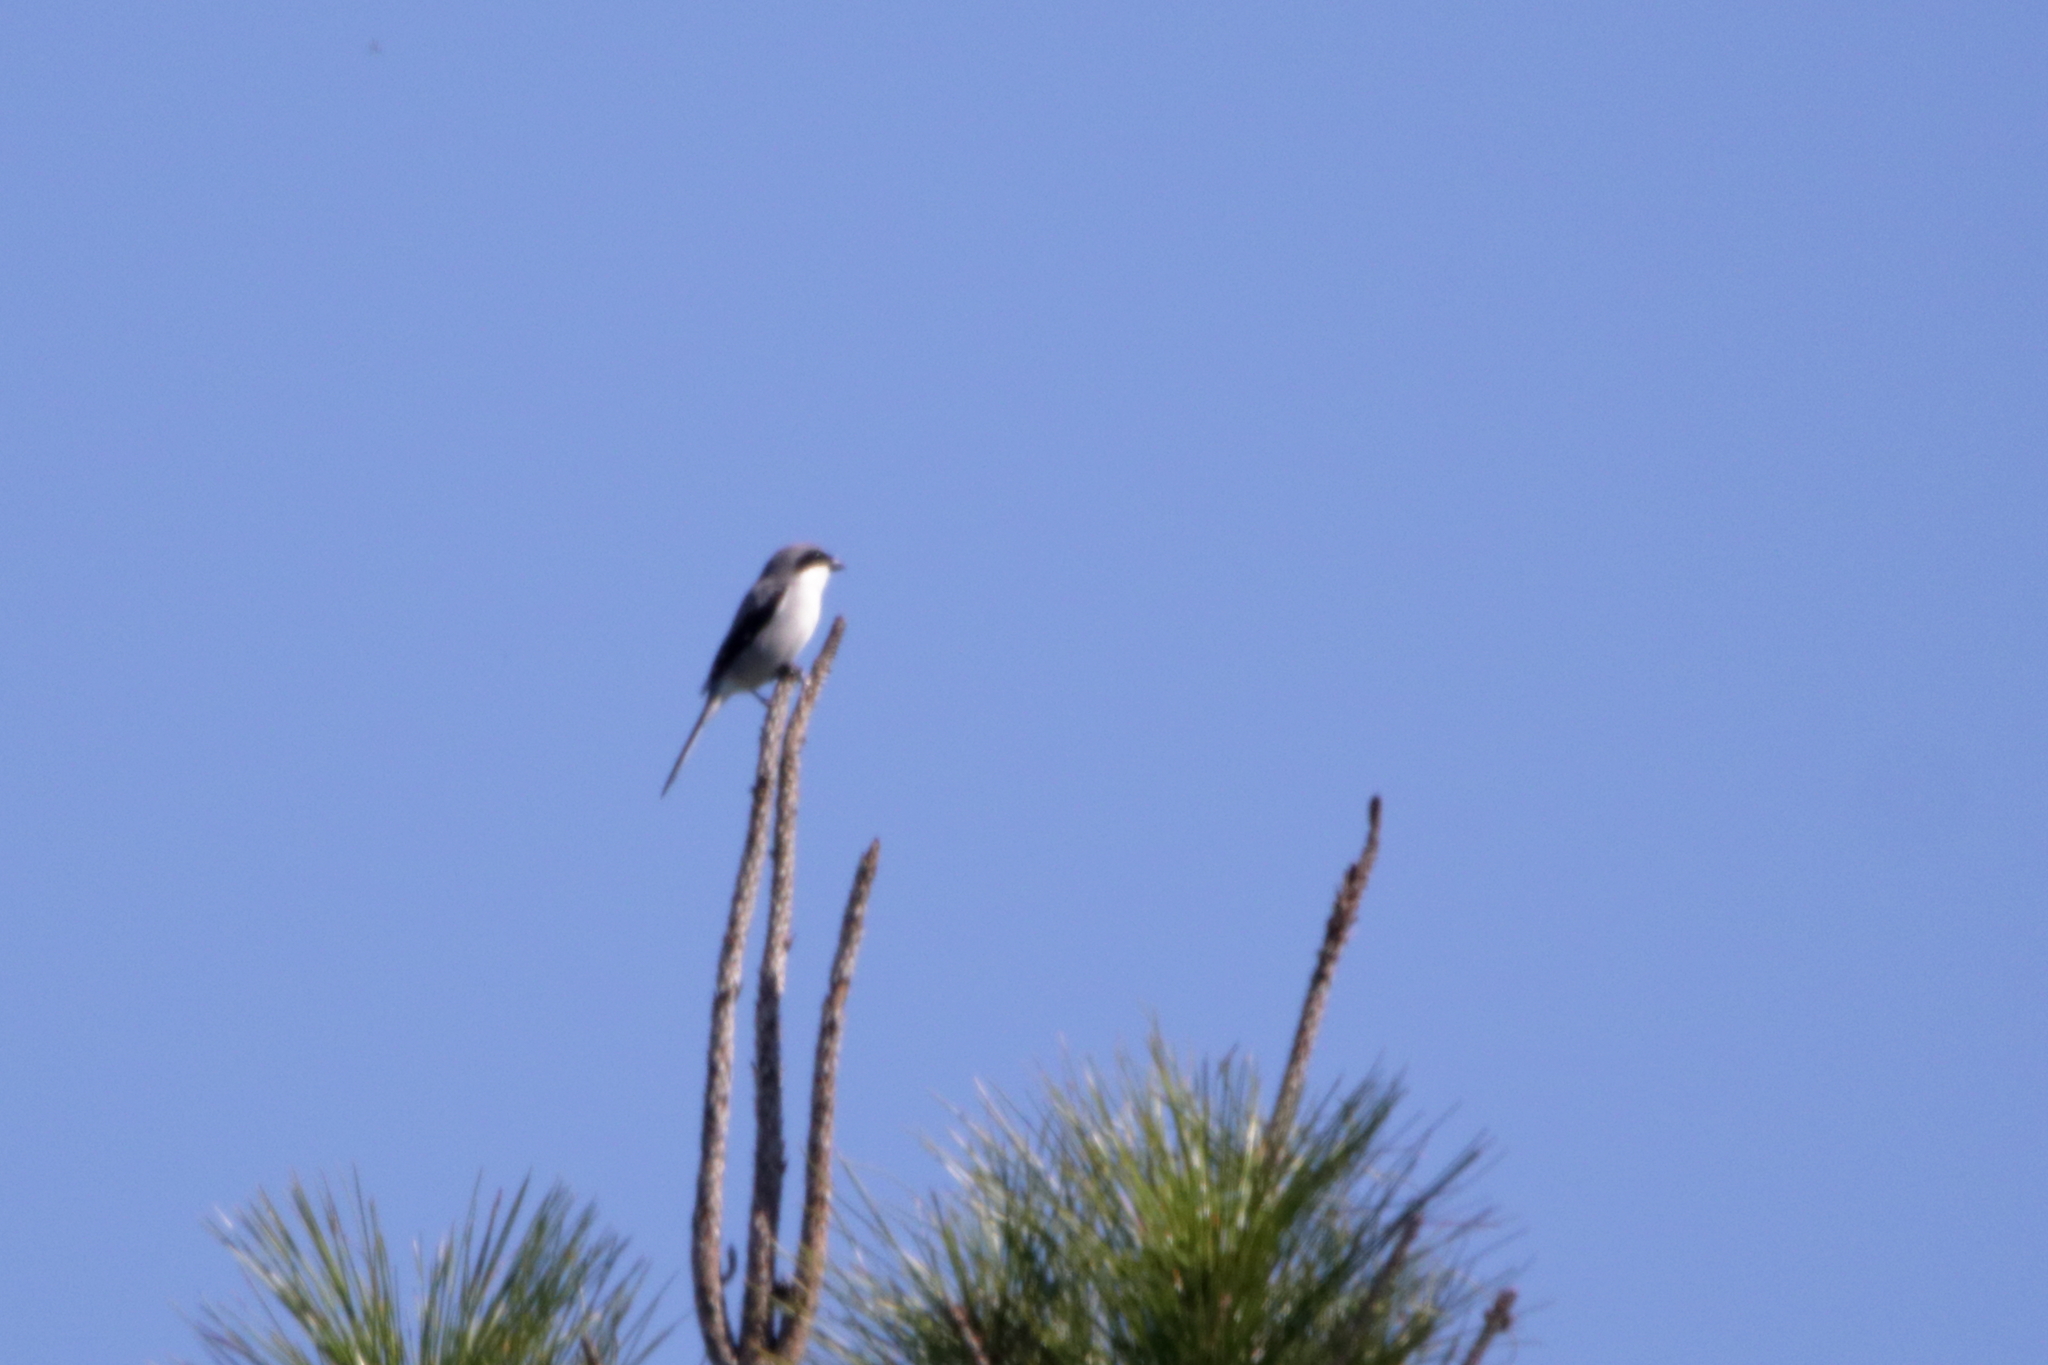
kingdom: Animalia
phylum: Chordata
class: Aves
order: Passeriformes
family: Laniidae
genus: Lanius
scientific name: Lanius ludovicianus
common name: Loggerhead shrike
